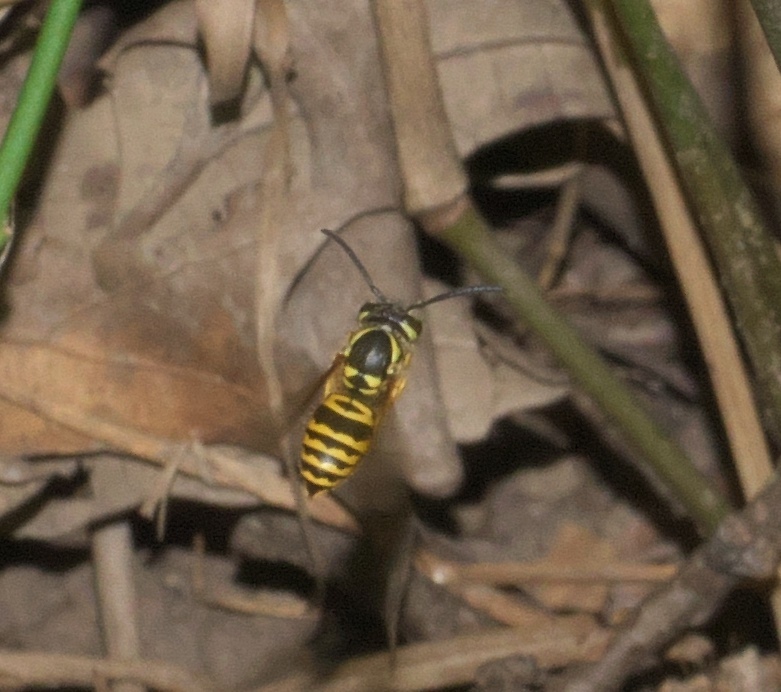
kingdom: Animalia
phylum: Arthropoda
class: Insecta
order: Hymenoptera
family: Vespidae
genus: Vespula
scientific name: Vespula maculifrons
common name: Eastern yellowjacket
